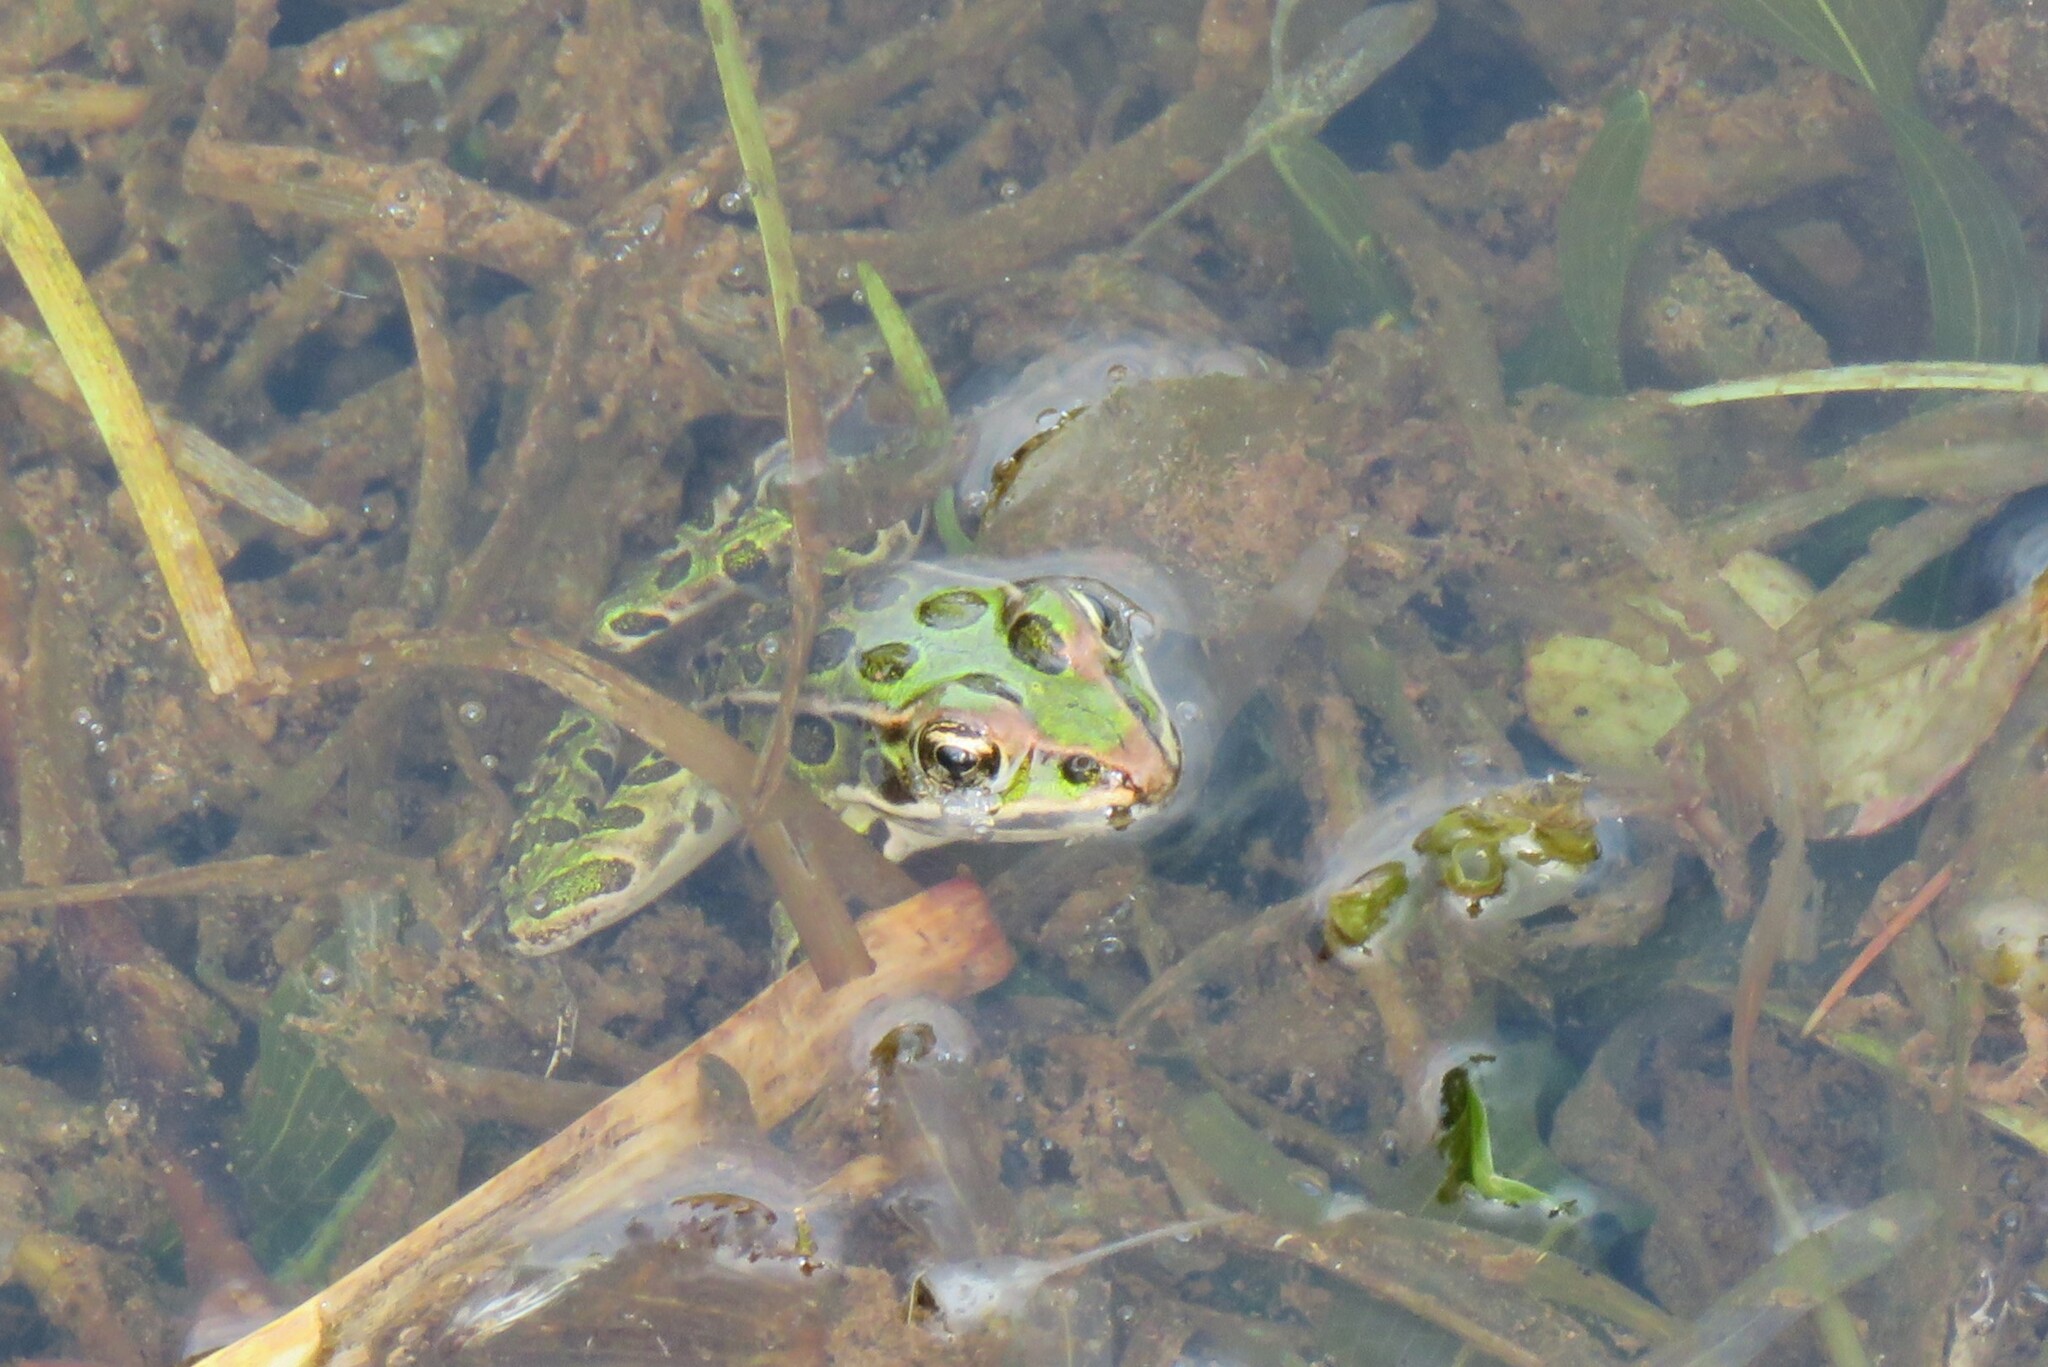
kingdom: Animalia
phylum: Chordata
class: Amphibia
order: Anura
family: Ranidae
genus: Lithobates
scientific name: Lithobates pipiens
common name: Northern leopard frog
